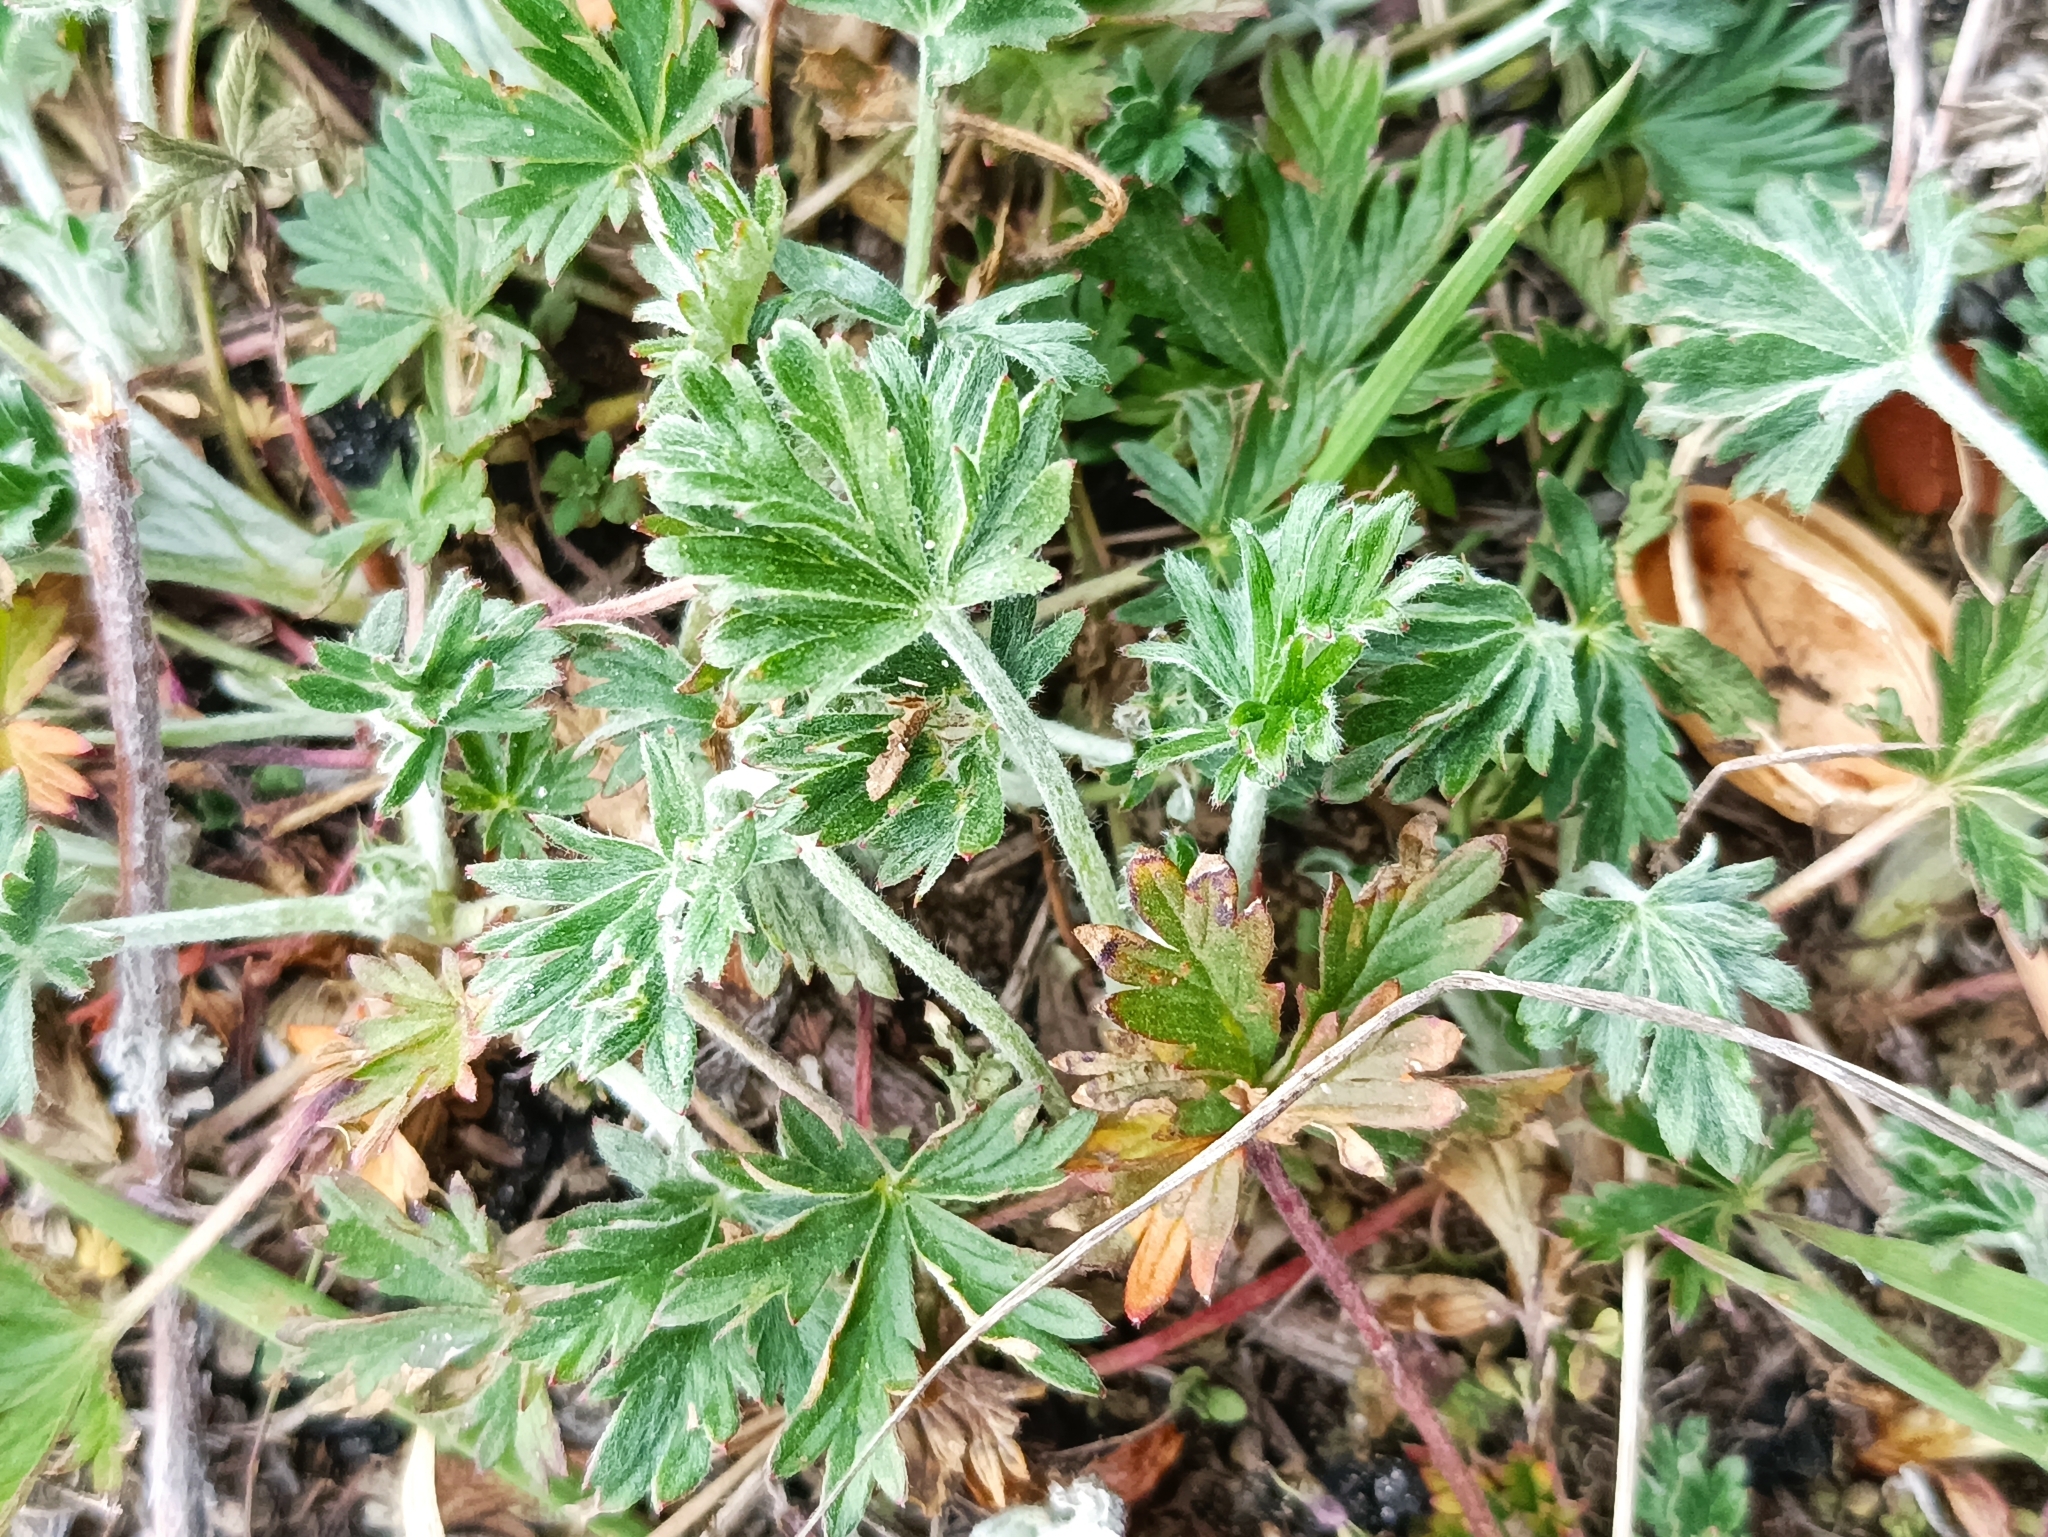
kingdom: Plantae
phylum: Tracheophyta
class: Magnoliopsida
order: Rosales
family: Rosaceae
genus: Potentilla
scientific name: Potentilla argentea
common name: Hoary cinquefoil
